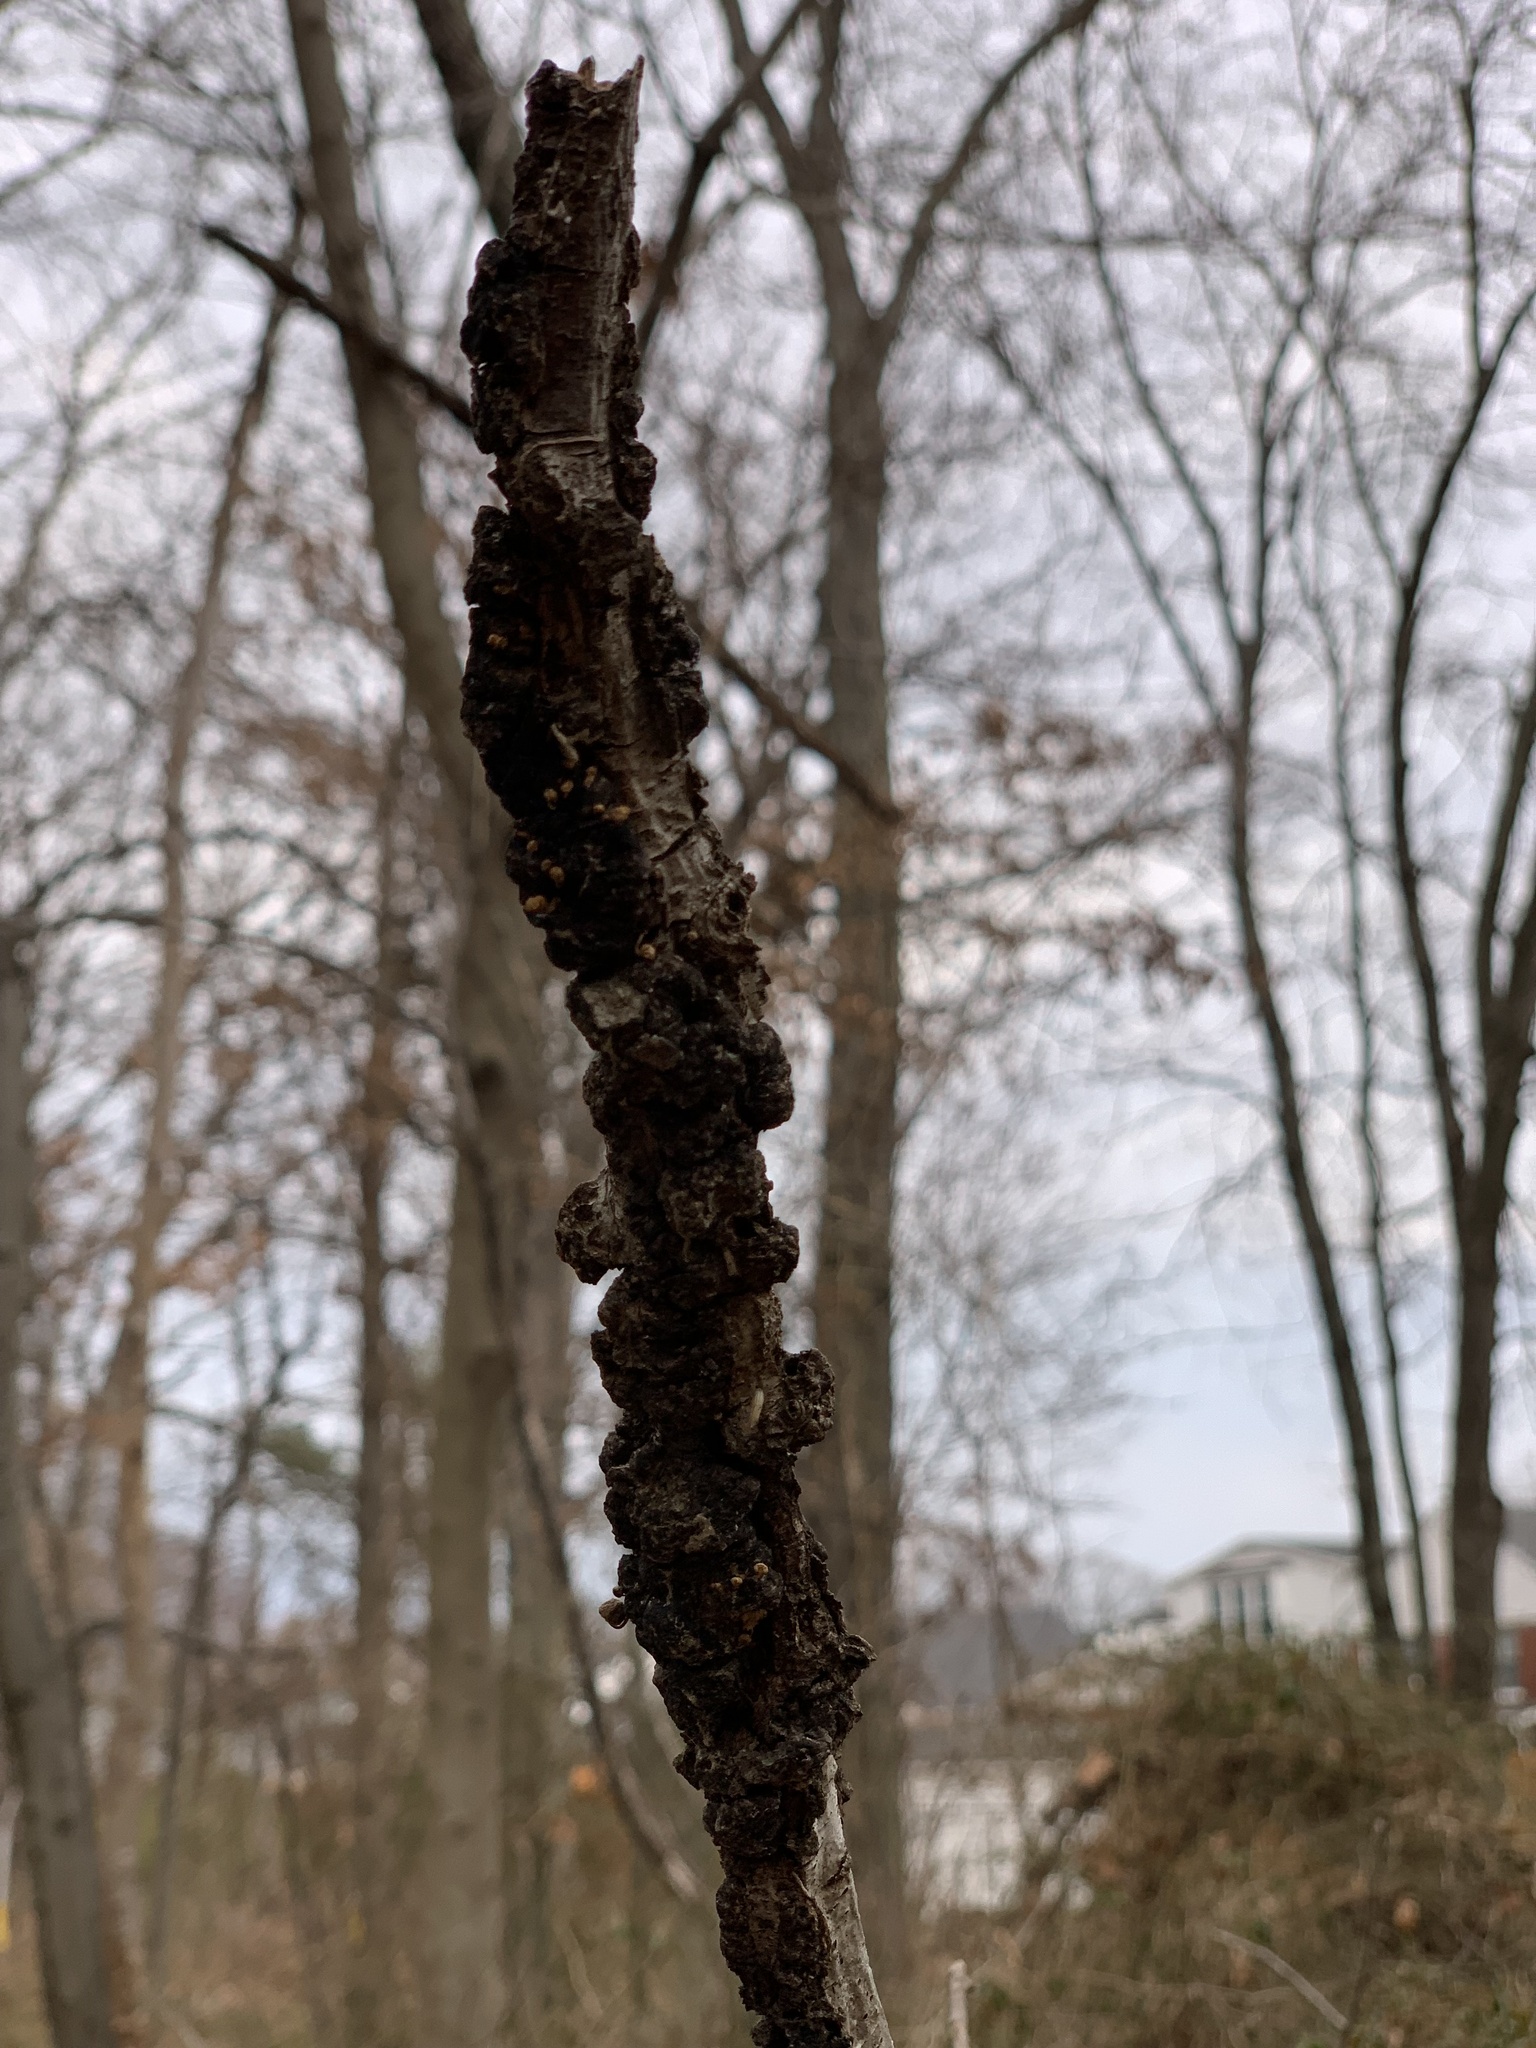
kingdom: Fungi
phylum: Ascomycota
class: Dothideomycetes
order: Venturiales
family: Venturiaceae
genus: Apiosporina
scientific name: Apiosporina morbosa
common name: Black knot
